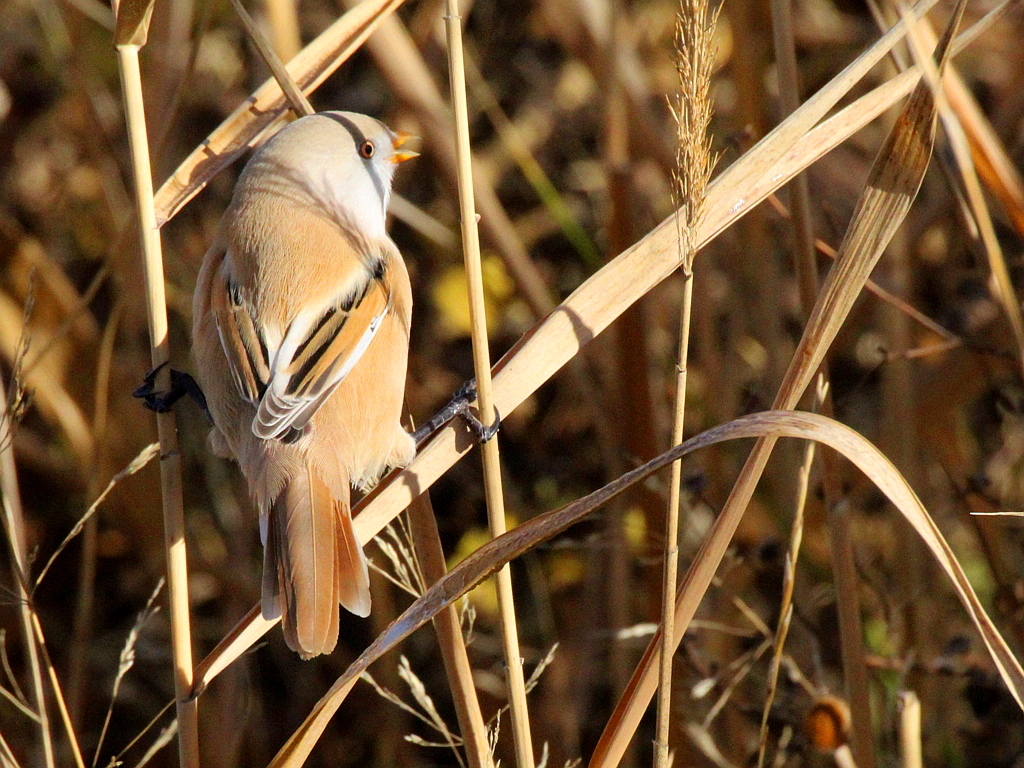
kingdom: Animalia
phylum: Chordata
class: Aves
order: Passeriformes
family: Panuridae
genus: Panurus
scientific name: Panurus biarmicus
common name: Bearded reedling
